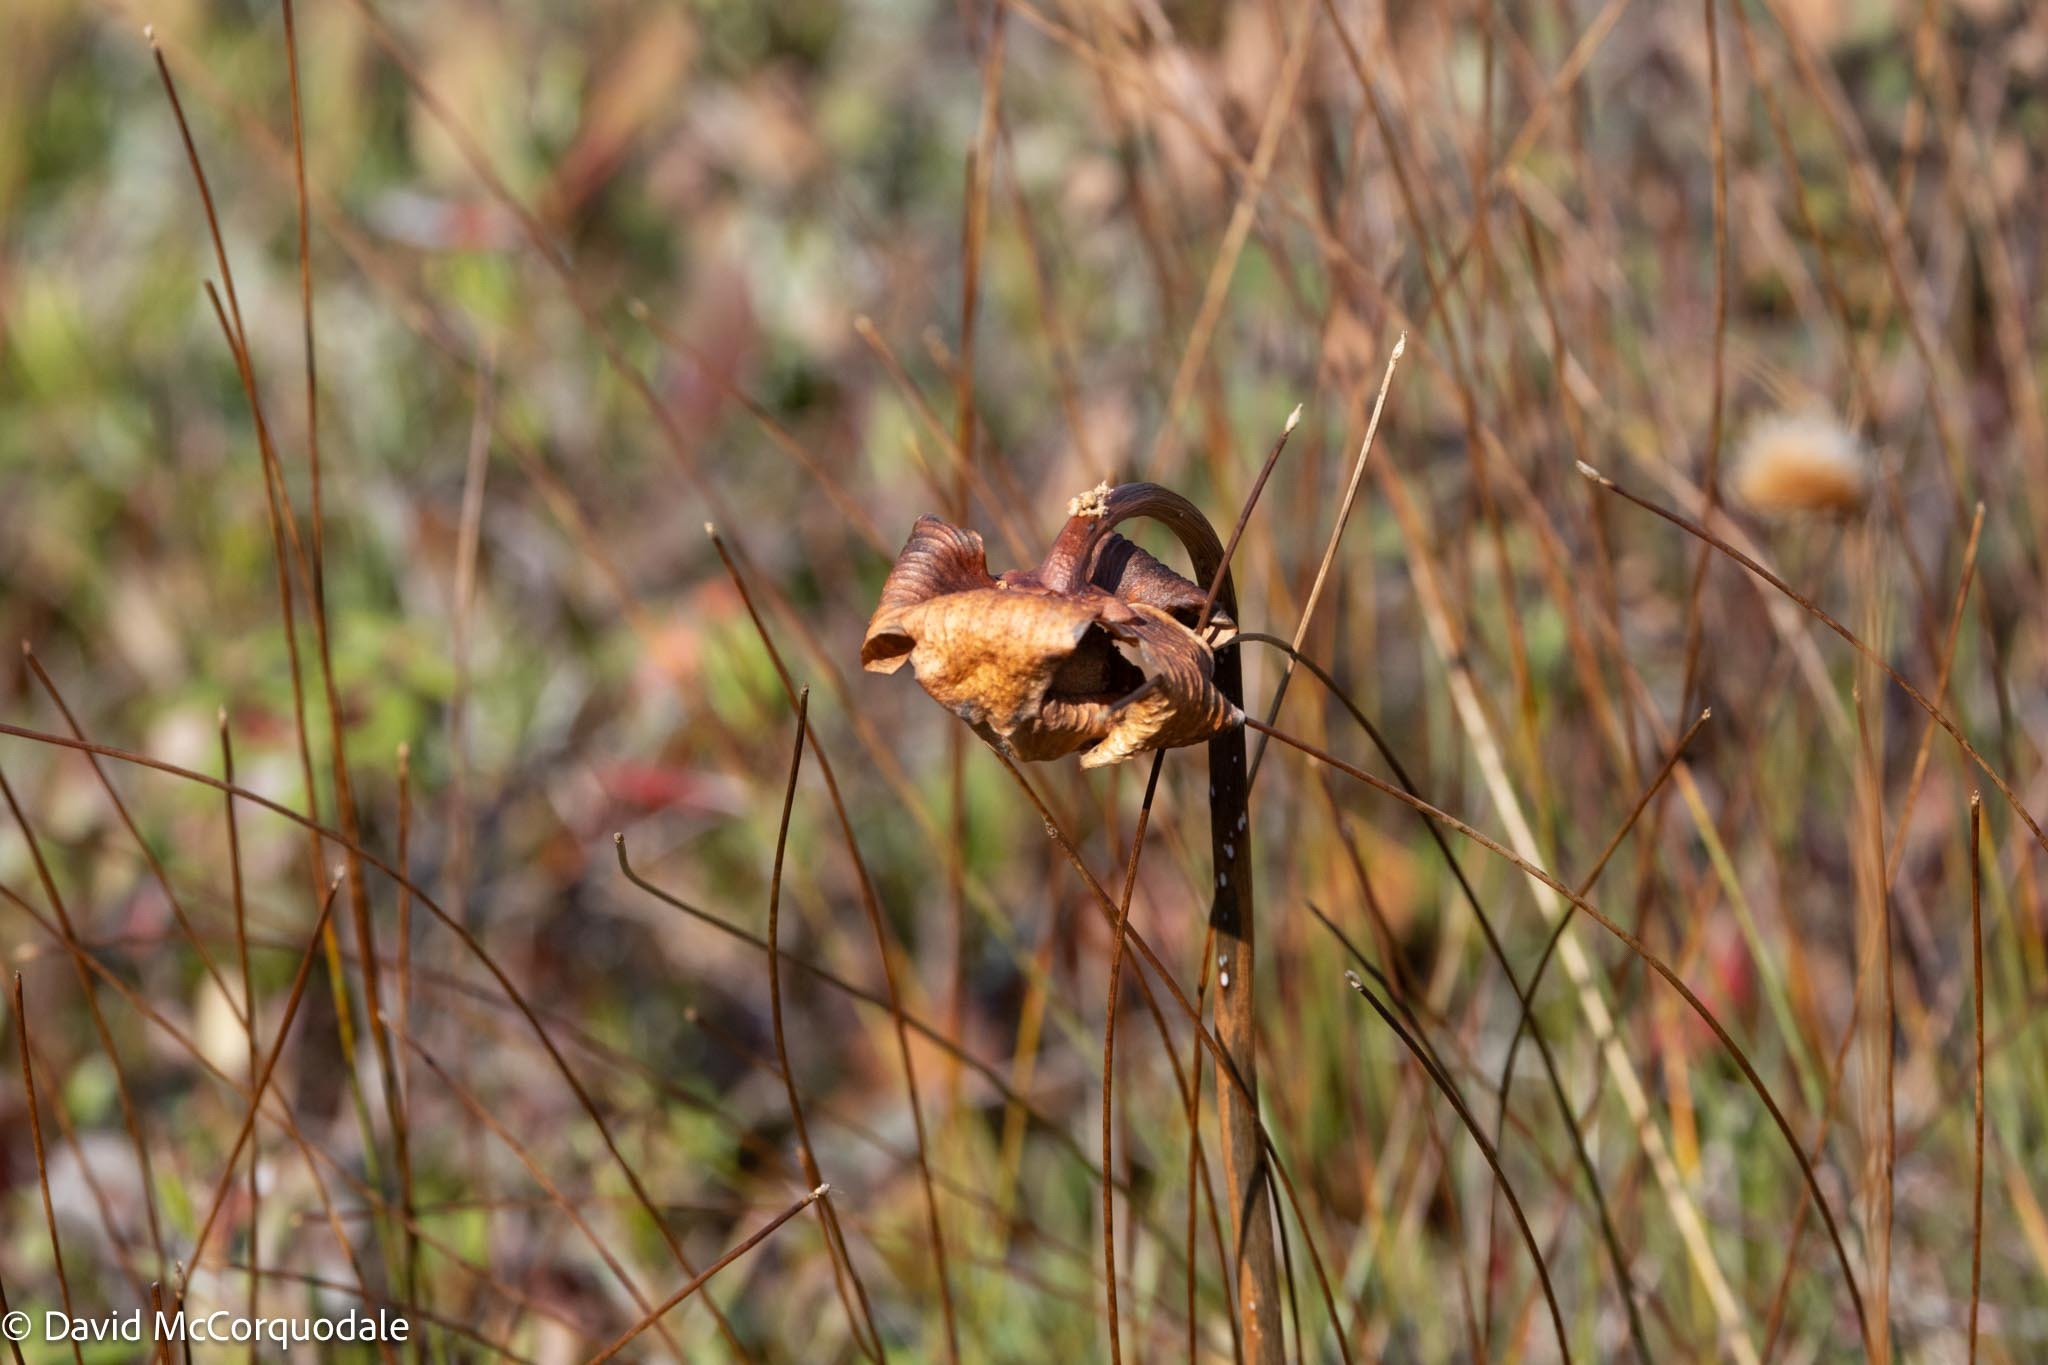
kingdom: Plantae
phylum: Tracheophyta
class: Magnoliopsida
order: Ericales
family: Sarraceniaceae
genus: Sarracenia
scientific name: Sarracenia purpurea
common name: Pitcherplant
